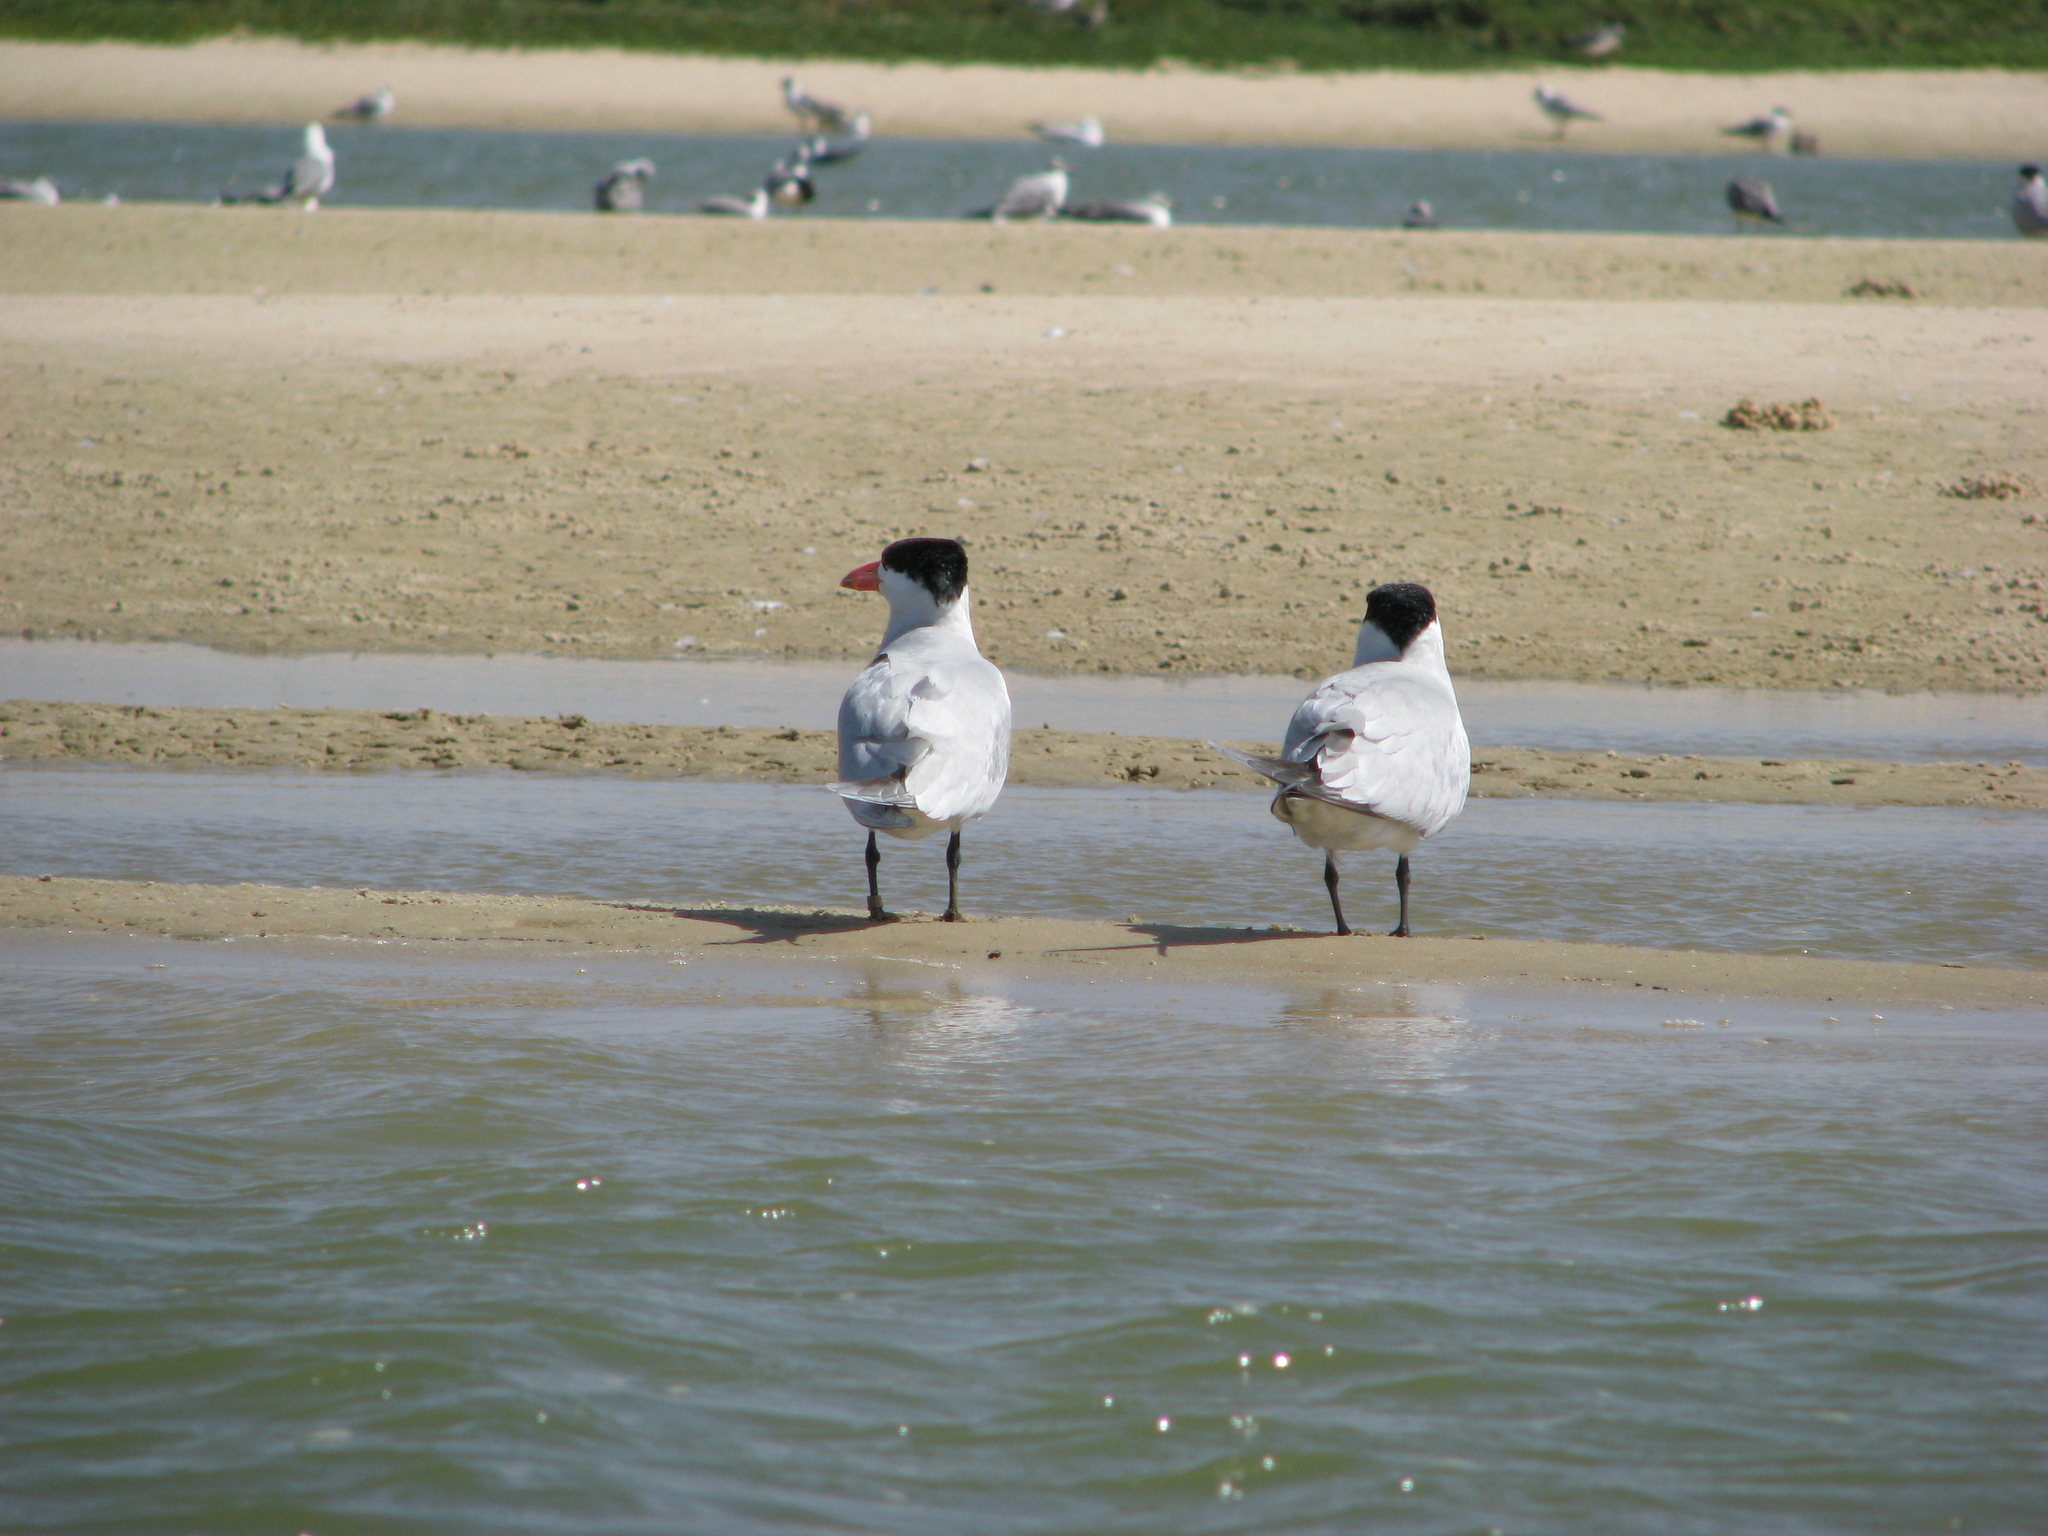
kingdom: Animalia
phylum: Chordata
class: Aves
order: Charadriiformes
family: Laridae
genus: Hydroprogne
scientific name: Hydroprogne caspia
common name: Caspian tern
